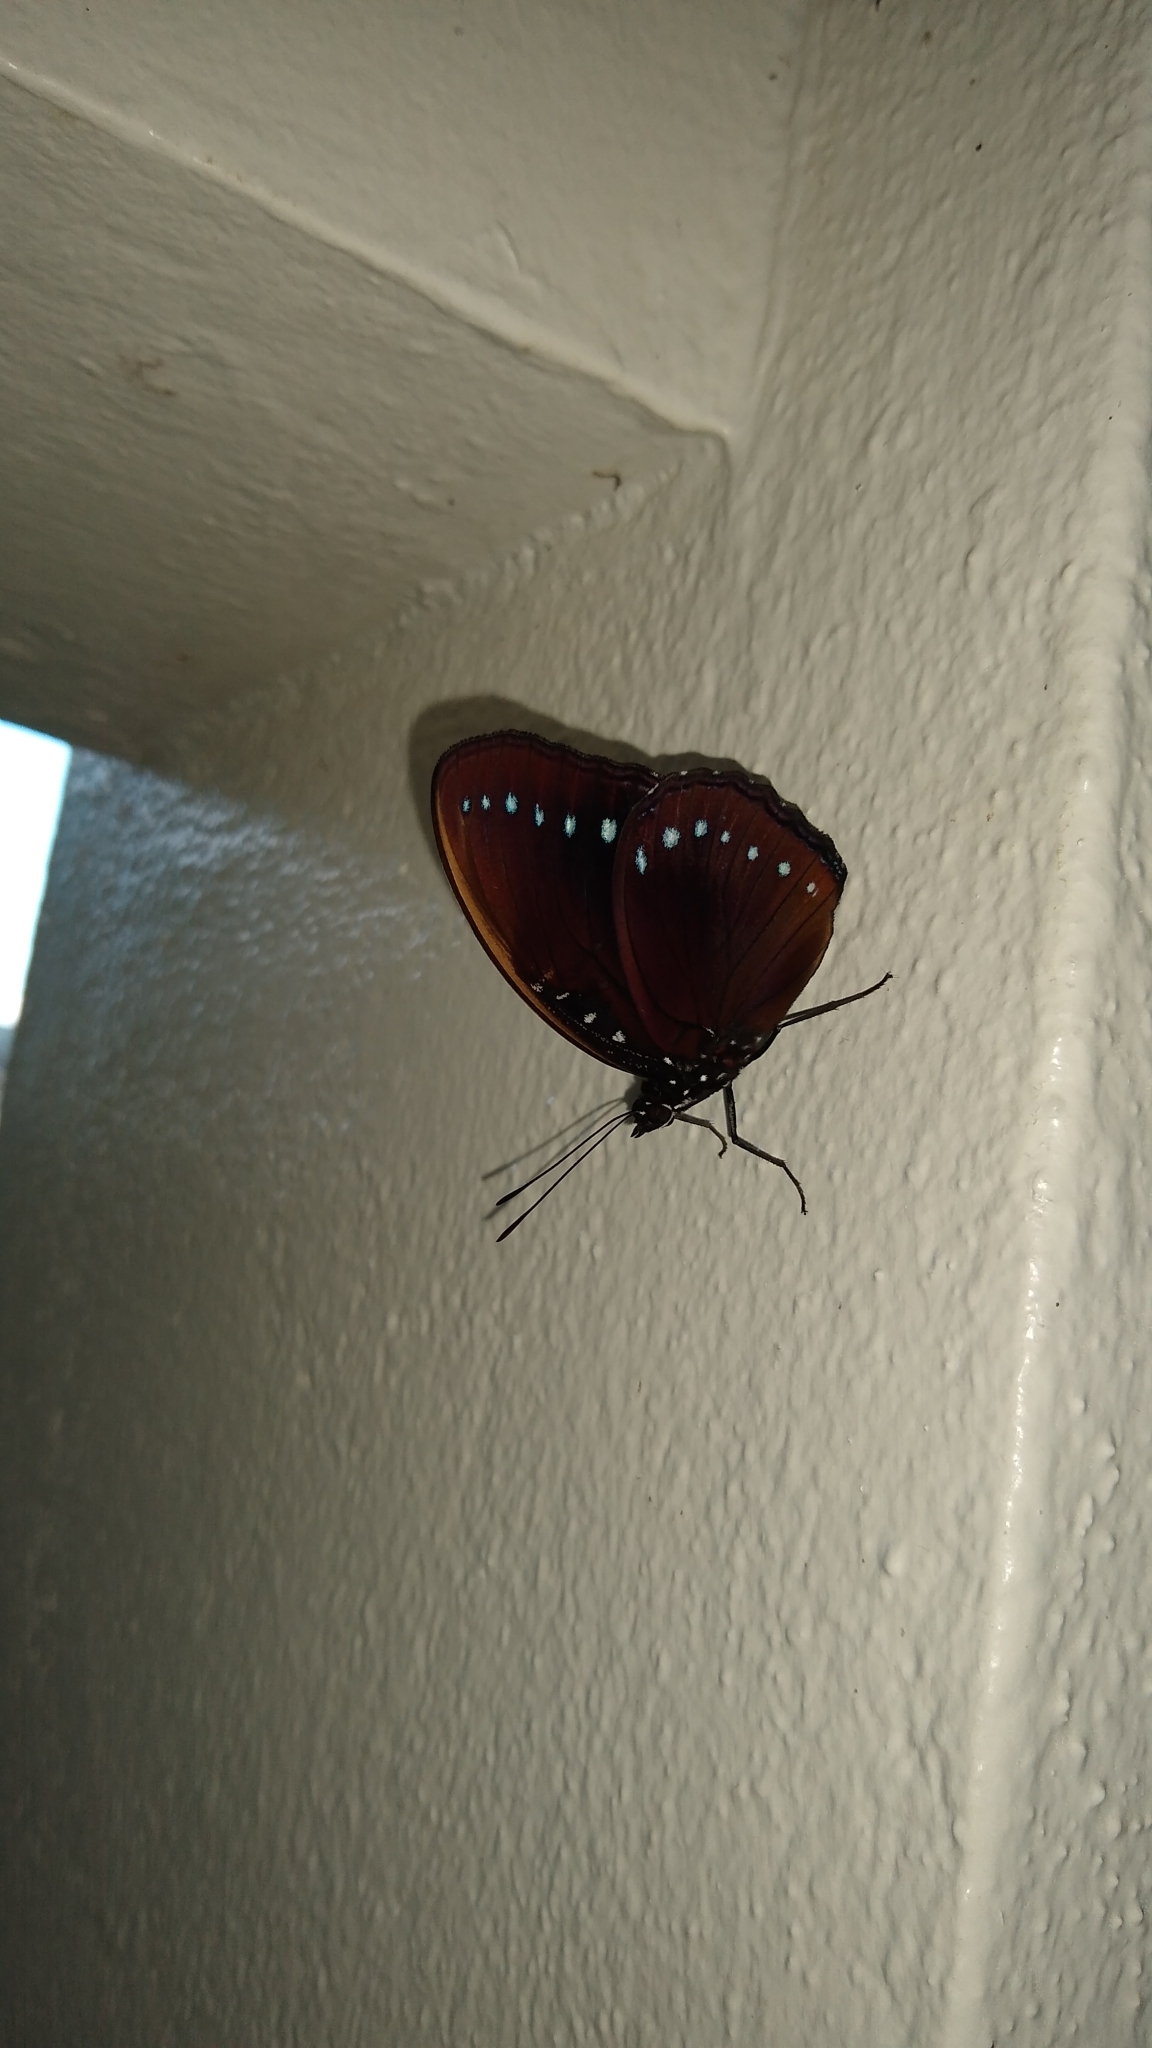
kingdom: Animalia
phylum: Arthropoda
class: Insecta
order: Lepidoptera
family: Nymphalidae
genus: Hypolimnas
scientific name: Hypolimnas pithoeka
